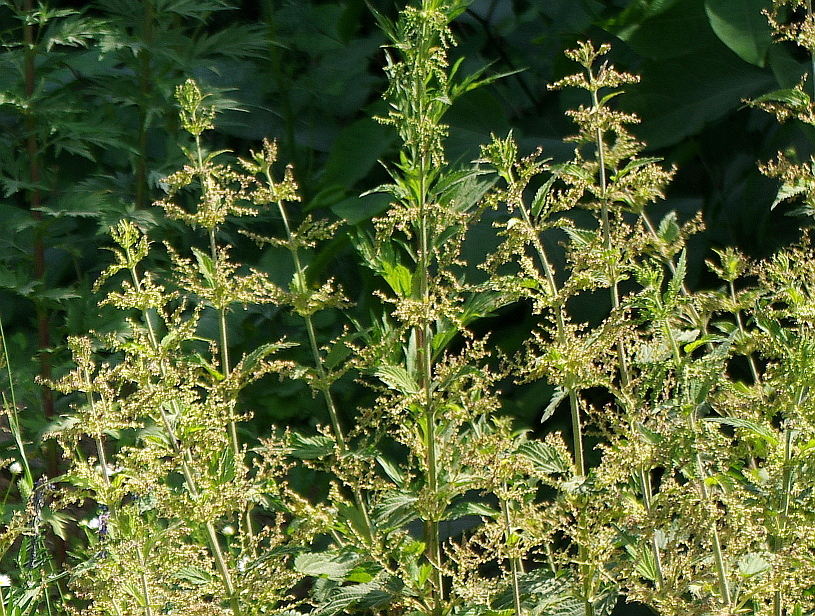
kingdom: Plantae
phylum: Tracheophyta
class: Magnoliopsida
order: Rosales
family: Urticaceae
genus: Urtica
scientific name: Urtica dioica
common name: Common nettle
